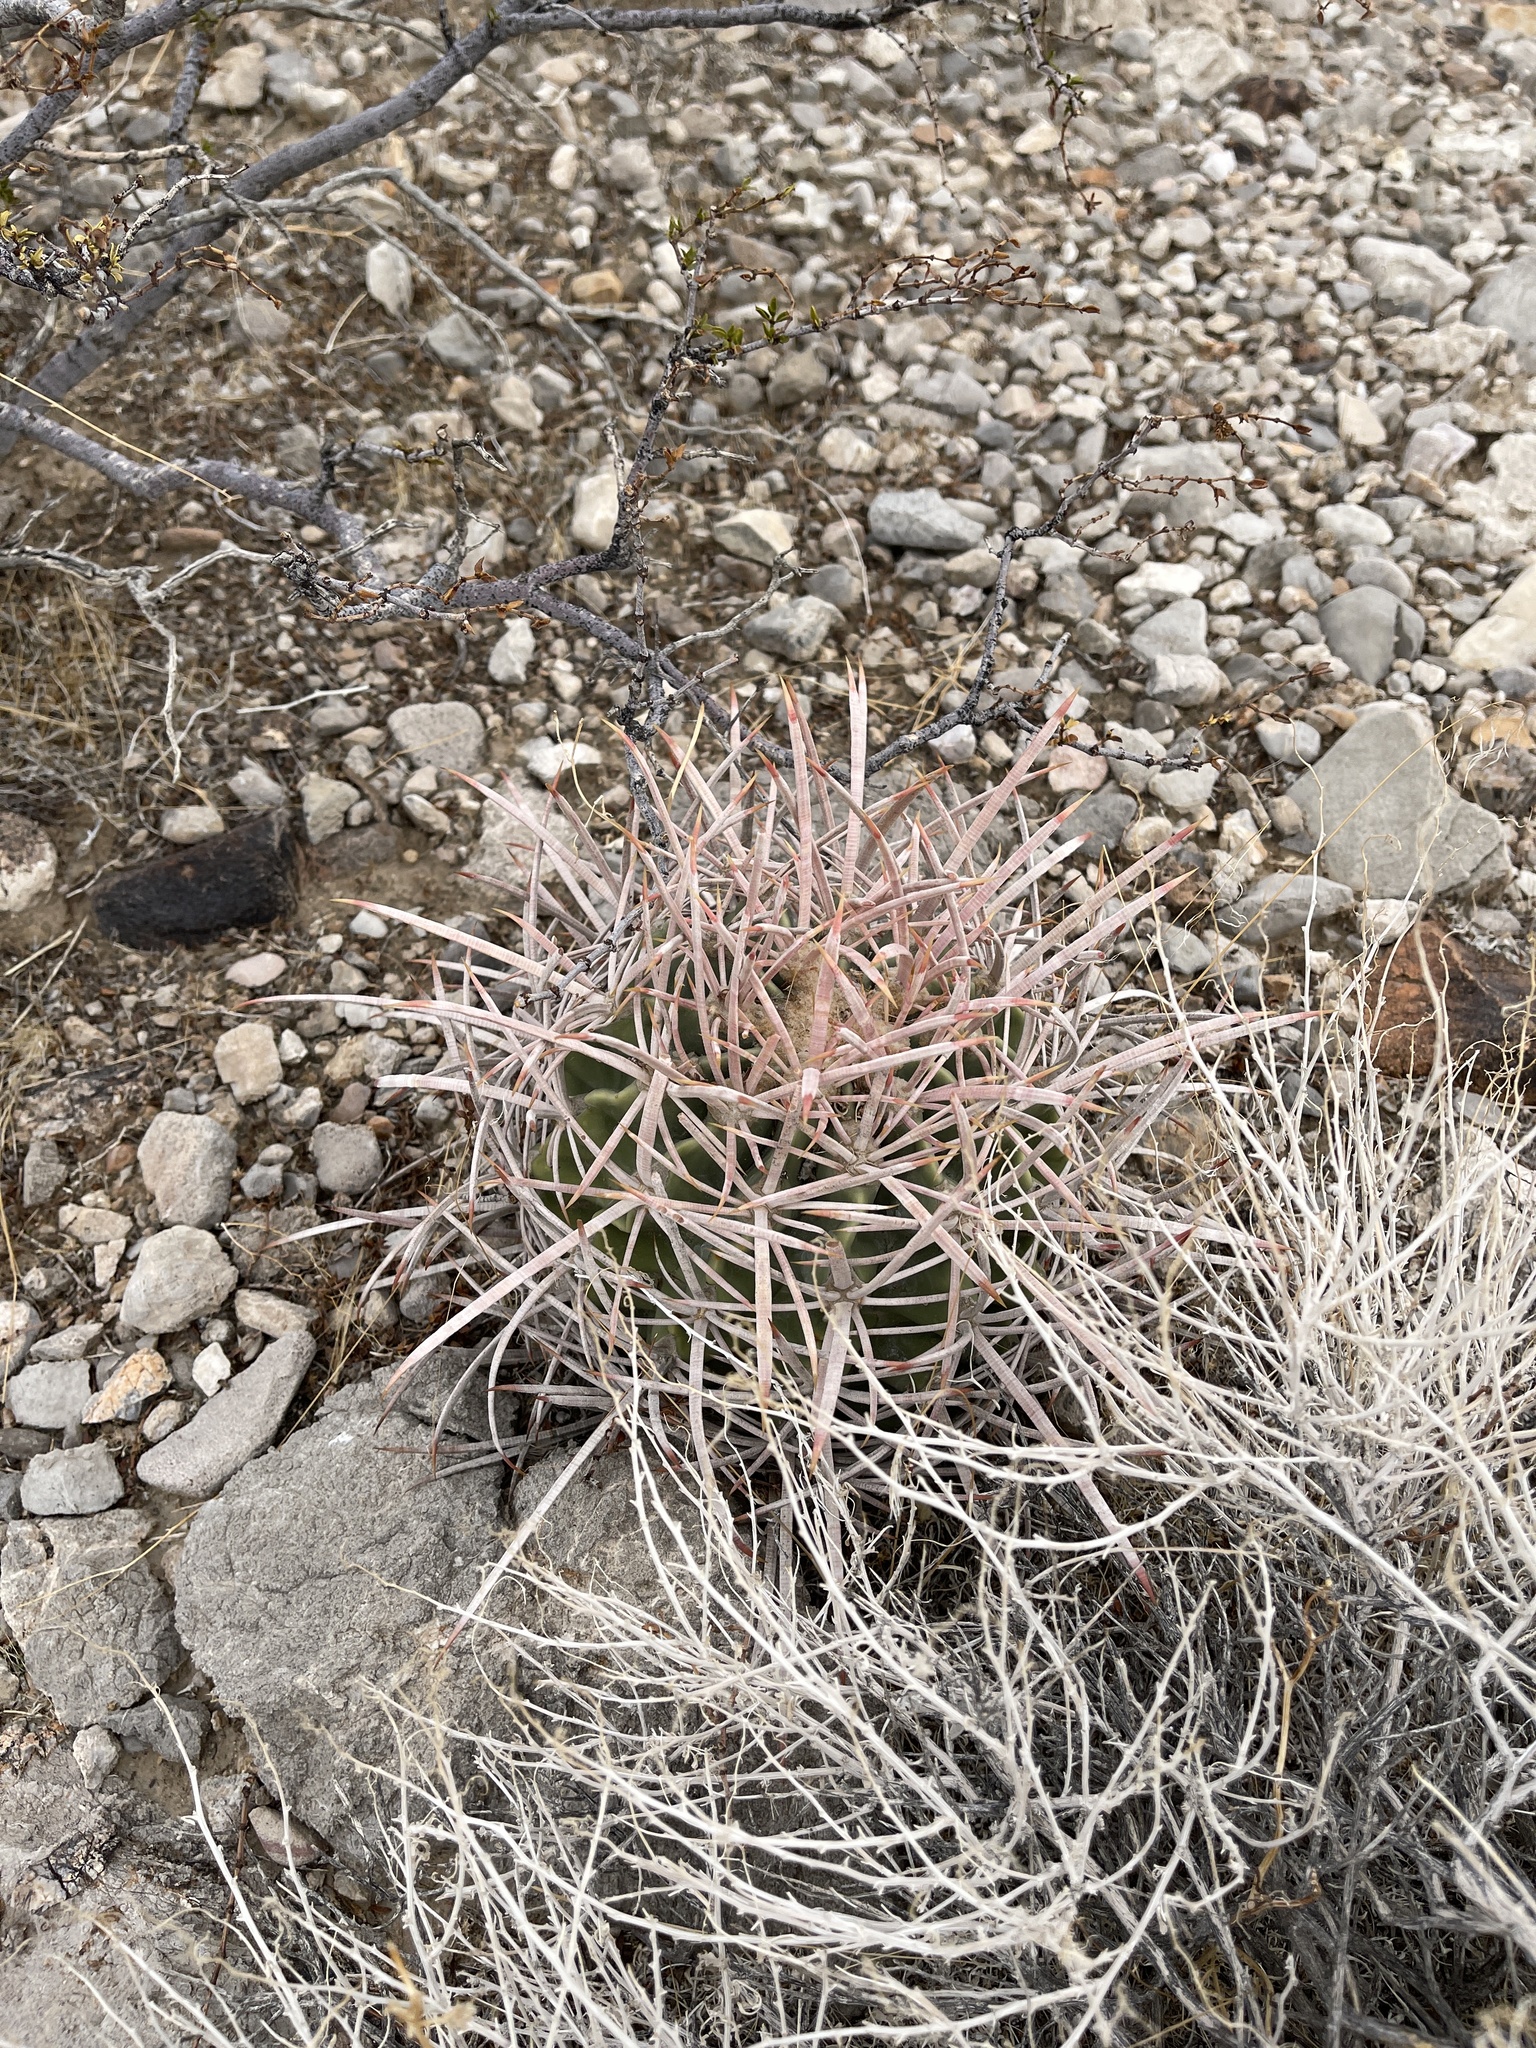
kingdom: Plantae
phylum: Tracheophyta
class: Magnoliopsida
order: Caryophyllales
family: Cactaceae
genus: Echinocactus
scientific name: Echinocactus polycephalus
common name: Cottontop cactus
